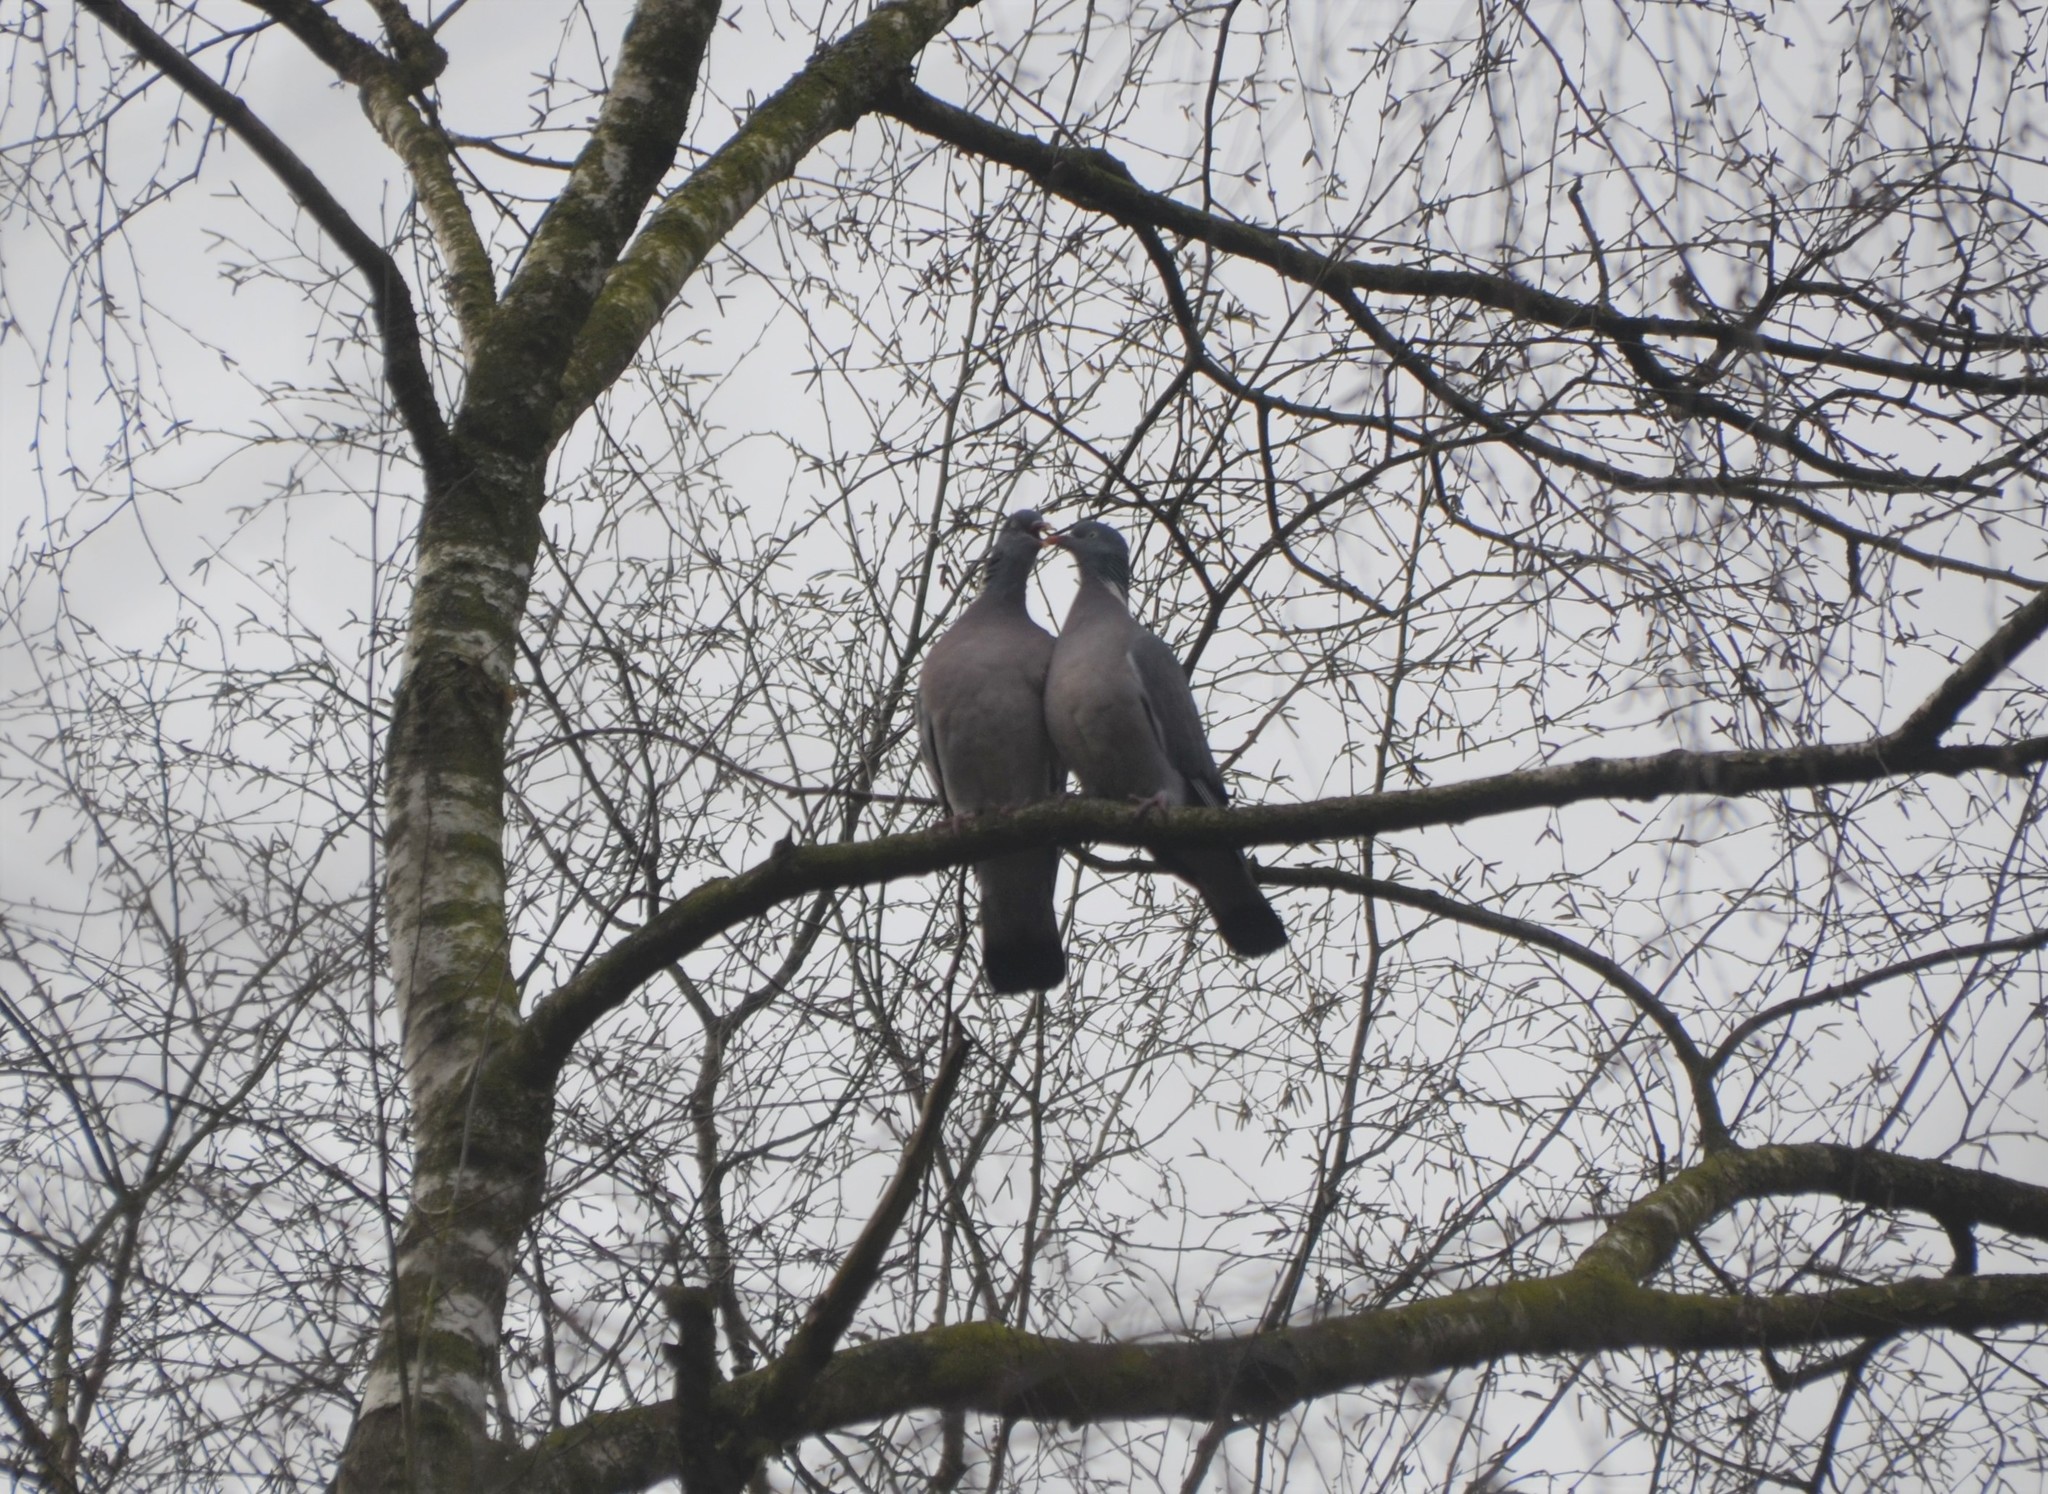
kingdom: Animalia
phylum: Chordata
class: Aves
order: Columbiformes
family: Columbidae
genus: Columba
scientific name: Columba palumbus
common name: Common wood pigeon
